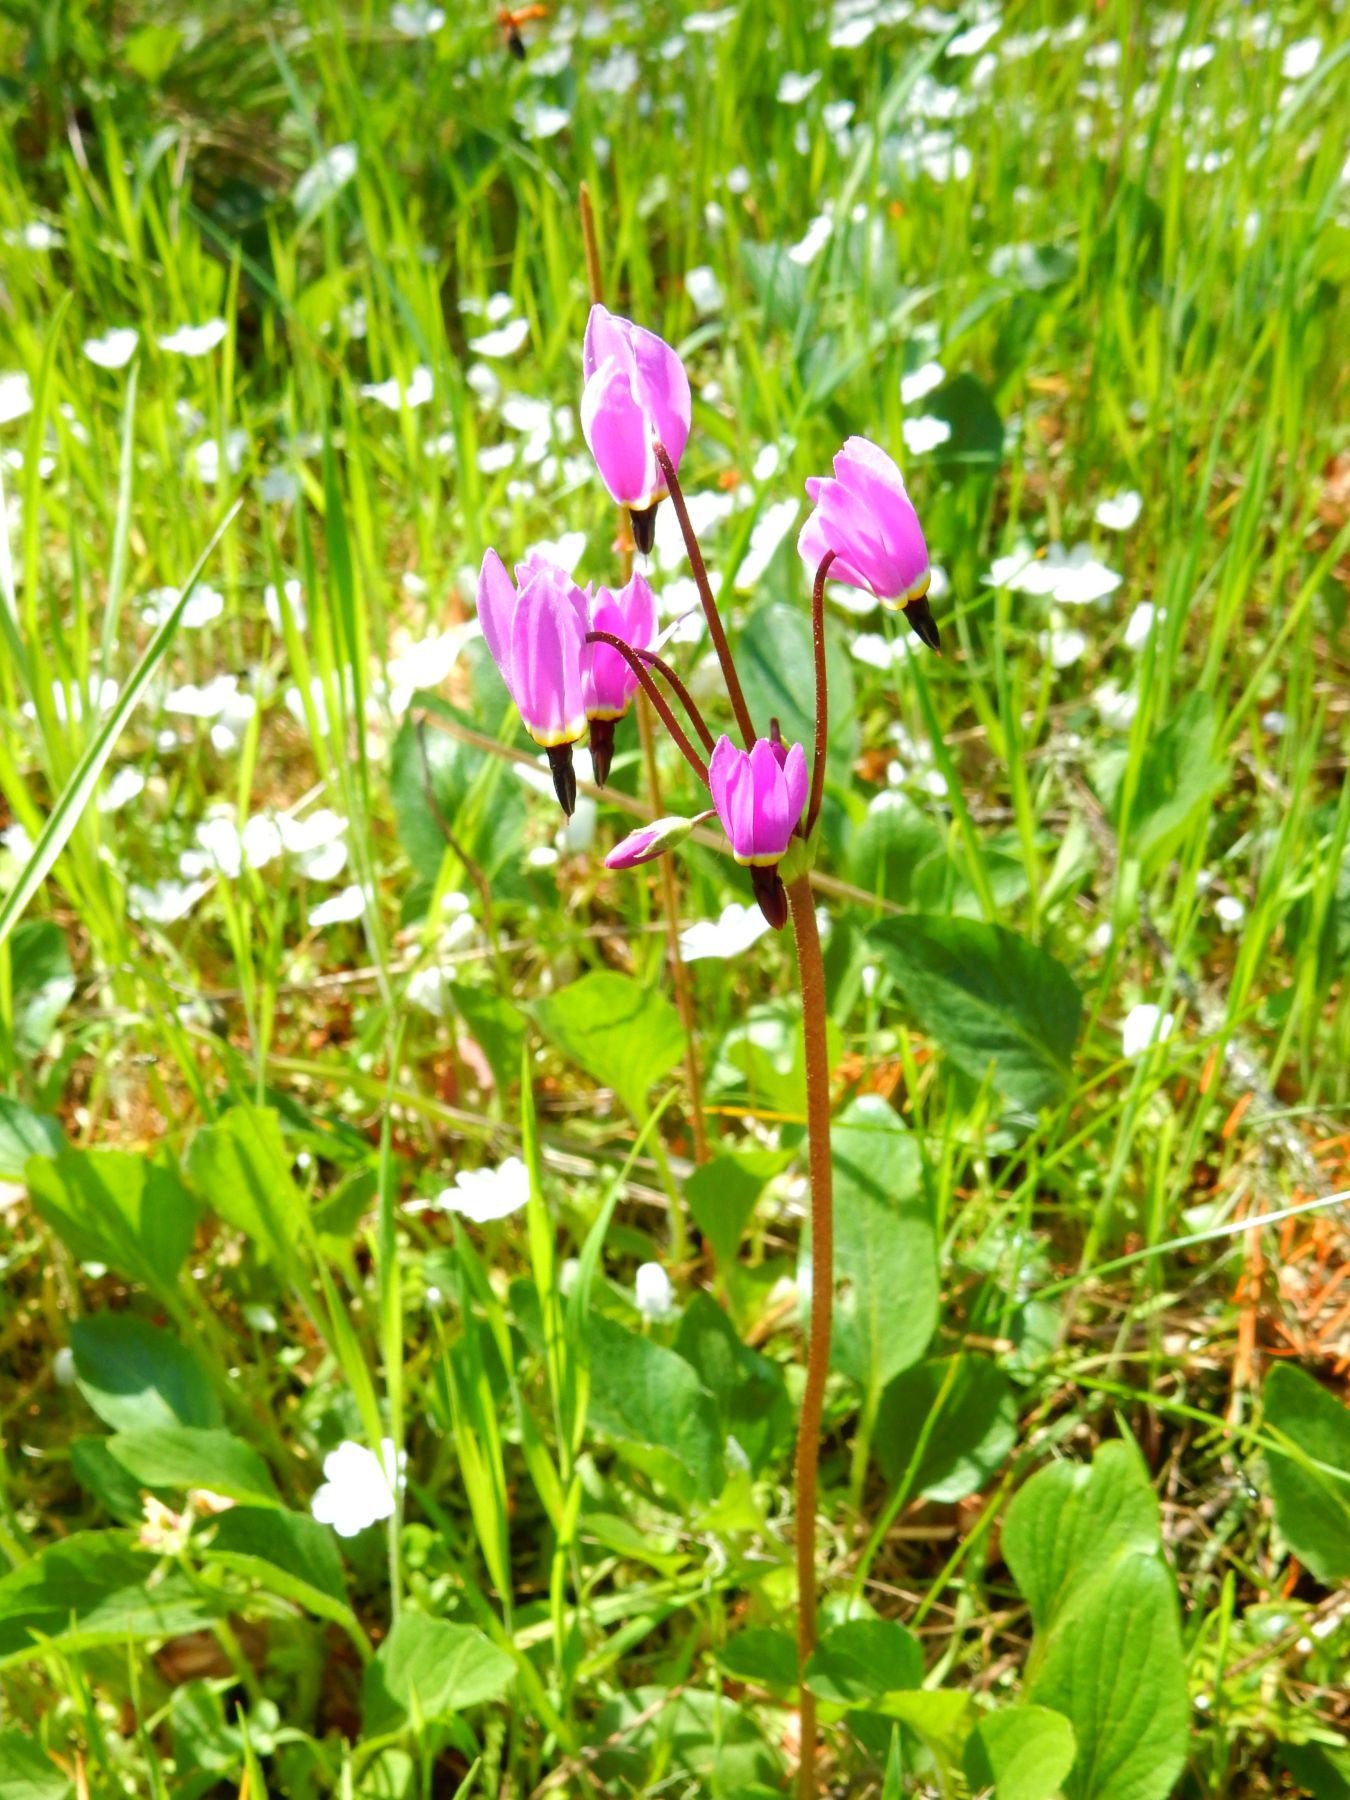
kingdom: Plantae
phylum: Tracheophyta
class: Magnoliopsida
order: Ericales
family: Primulaceae
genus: Dodecatheon
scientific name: Dodecatheon hendersonii
